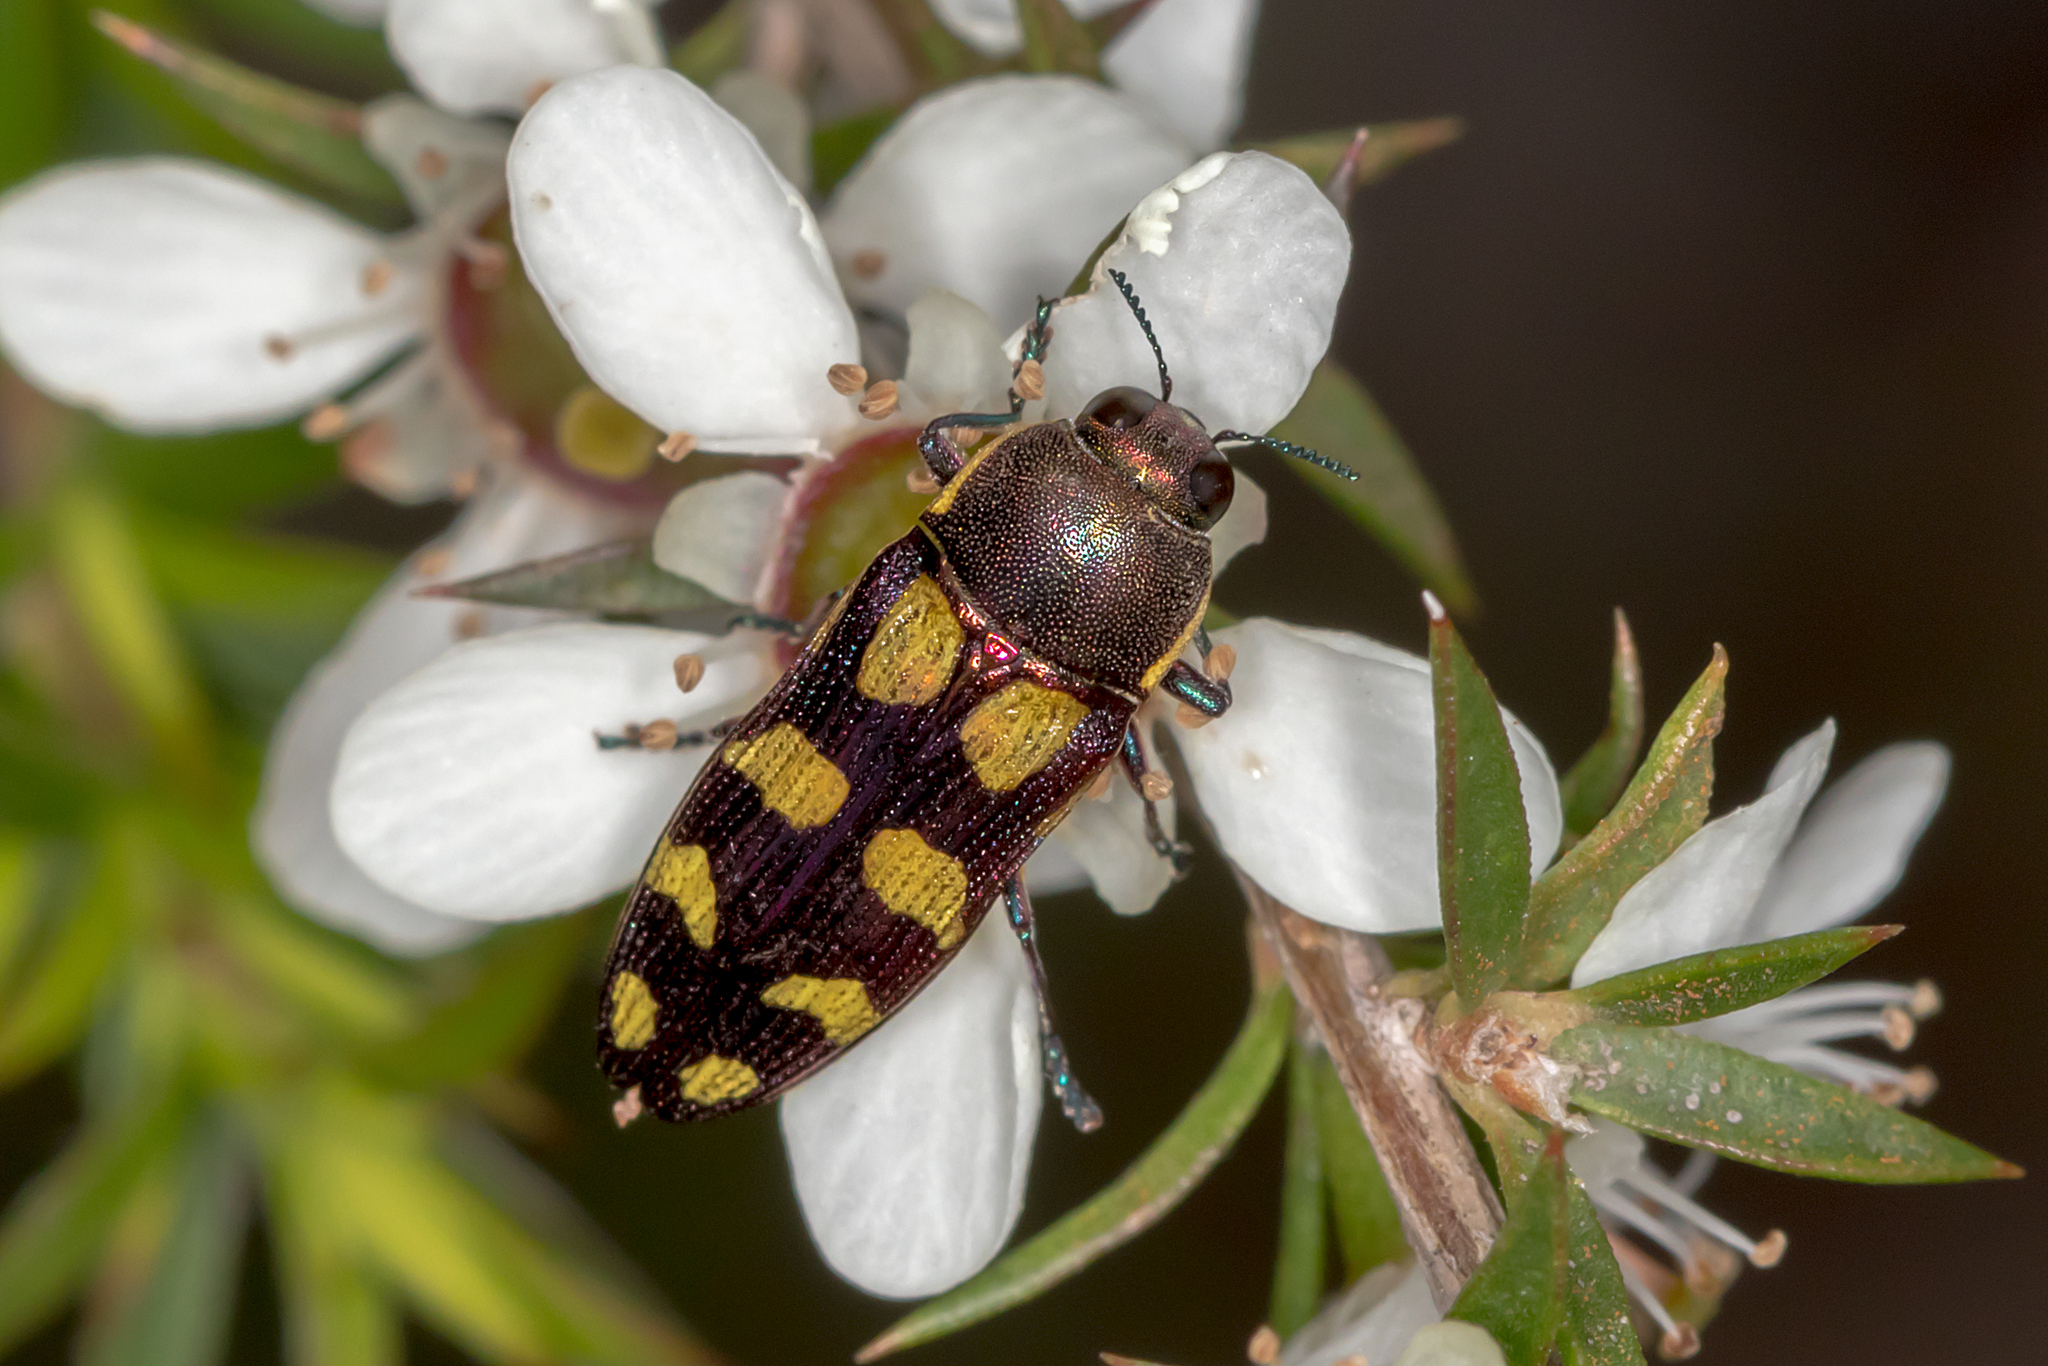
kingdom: Animalia
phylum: Arthropoda
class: Insecta
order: Coleoptera
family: Buprestidae
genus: Castiarina
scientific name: Castiarina decemmaculata
